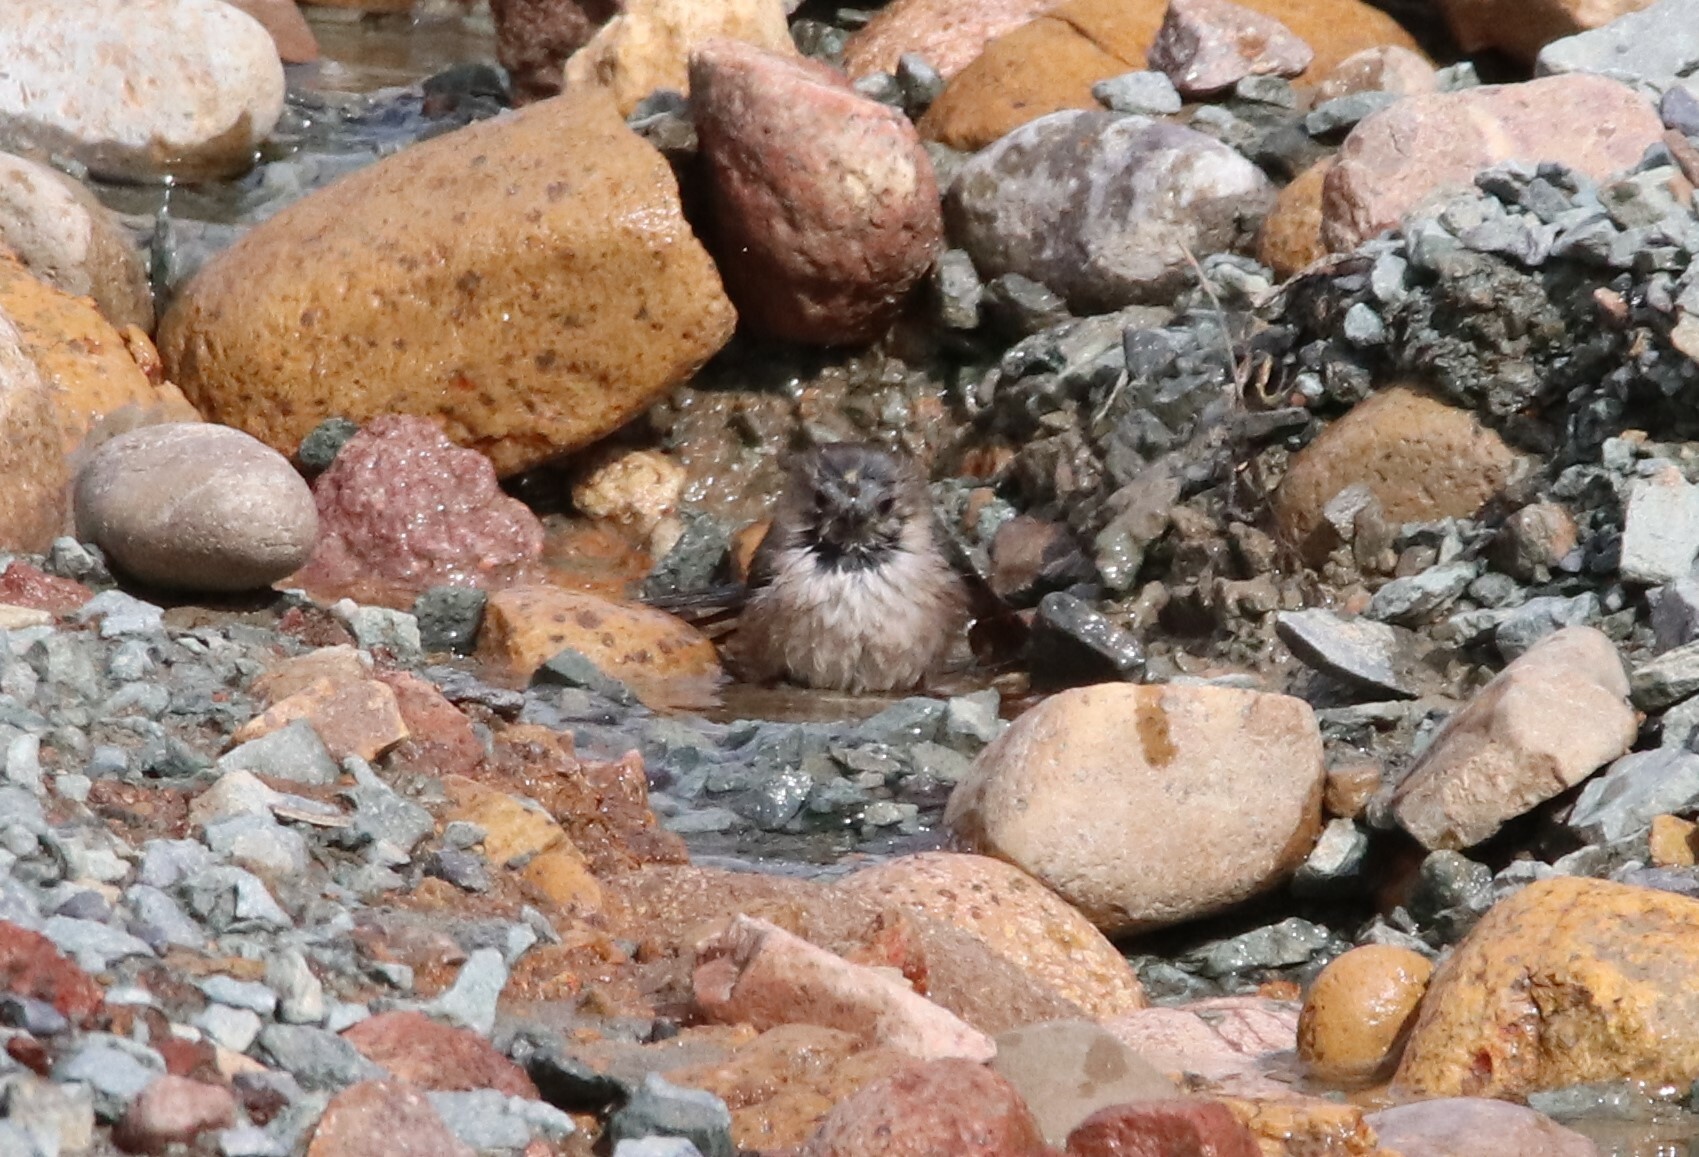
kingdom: Animalia
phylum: Chordata
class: Aves
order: Passeriformes
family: Aegithalidae
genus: Psaltriparus
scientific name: Psaltriparus minimus
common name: American bushtit
